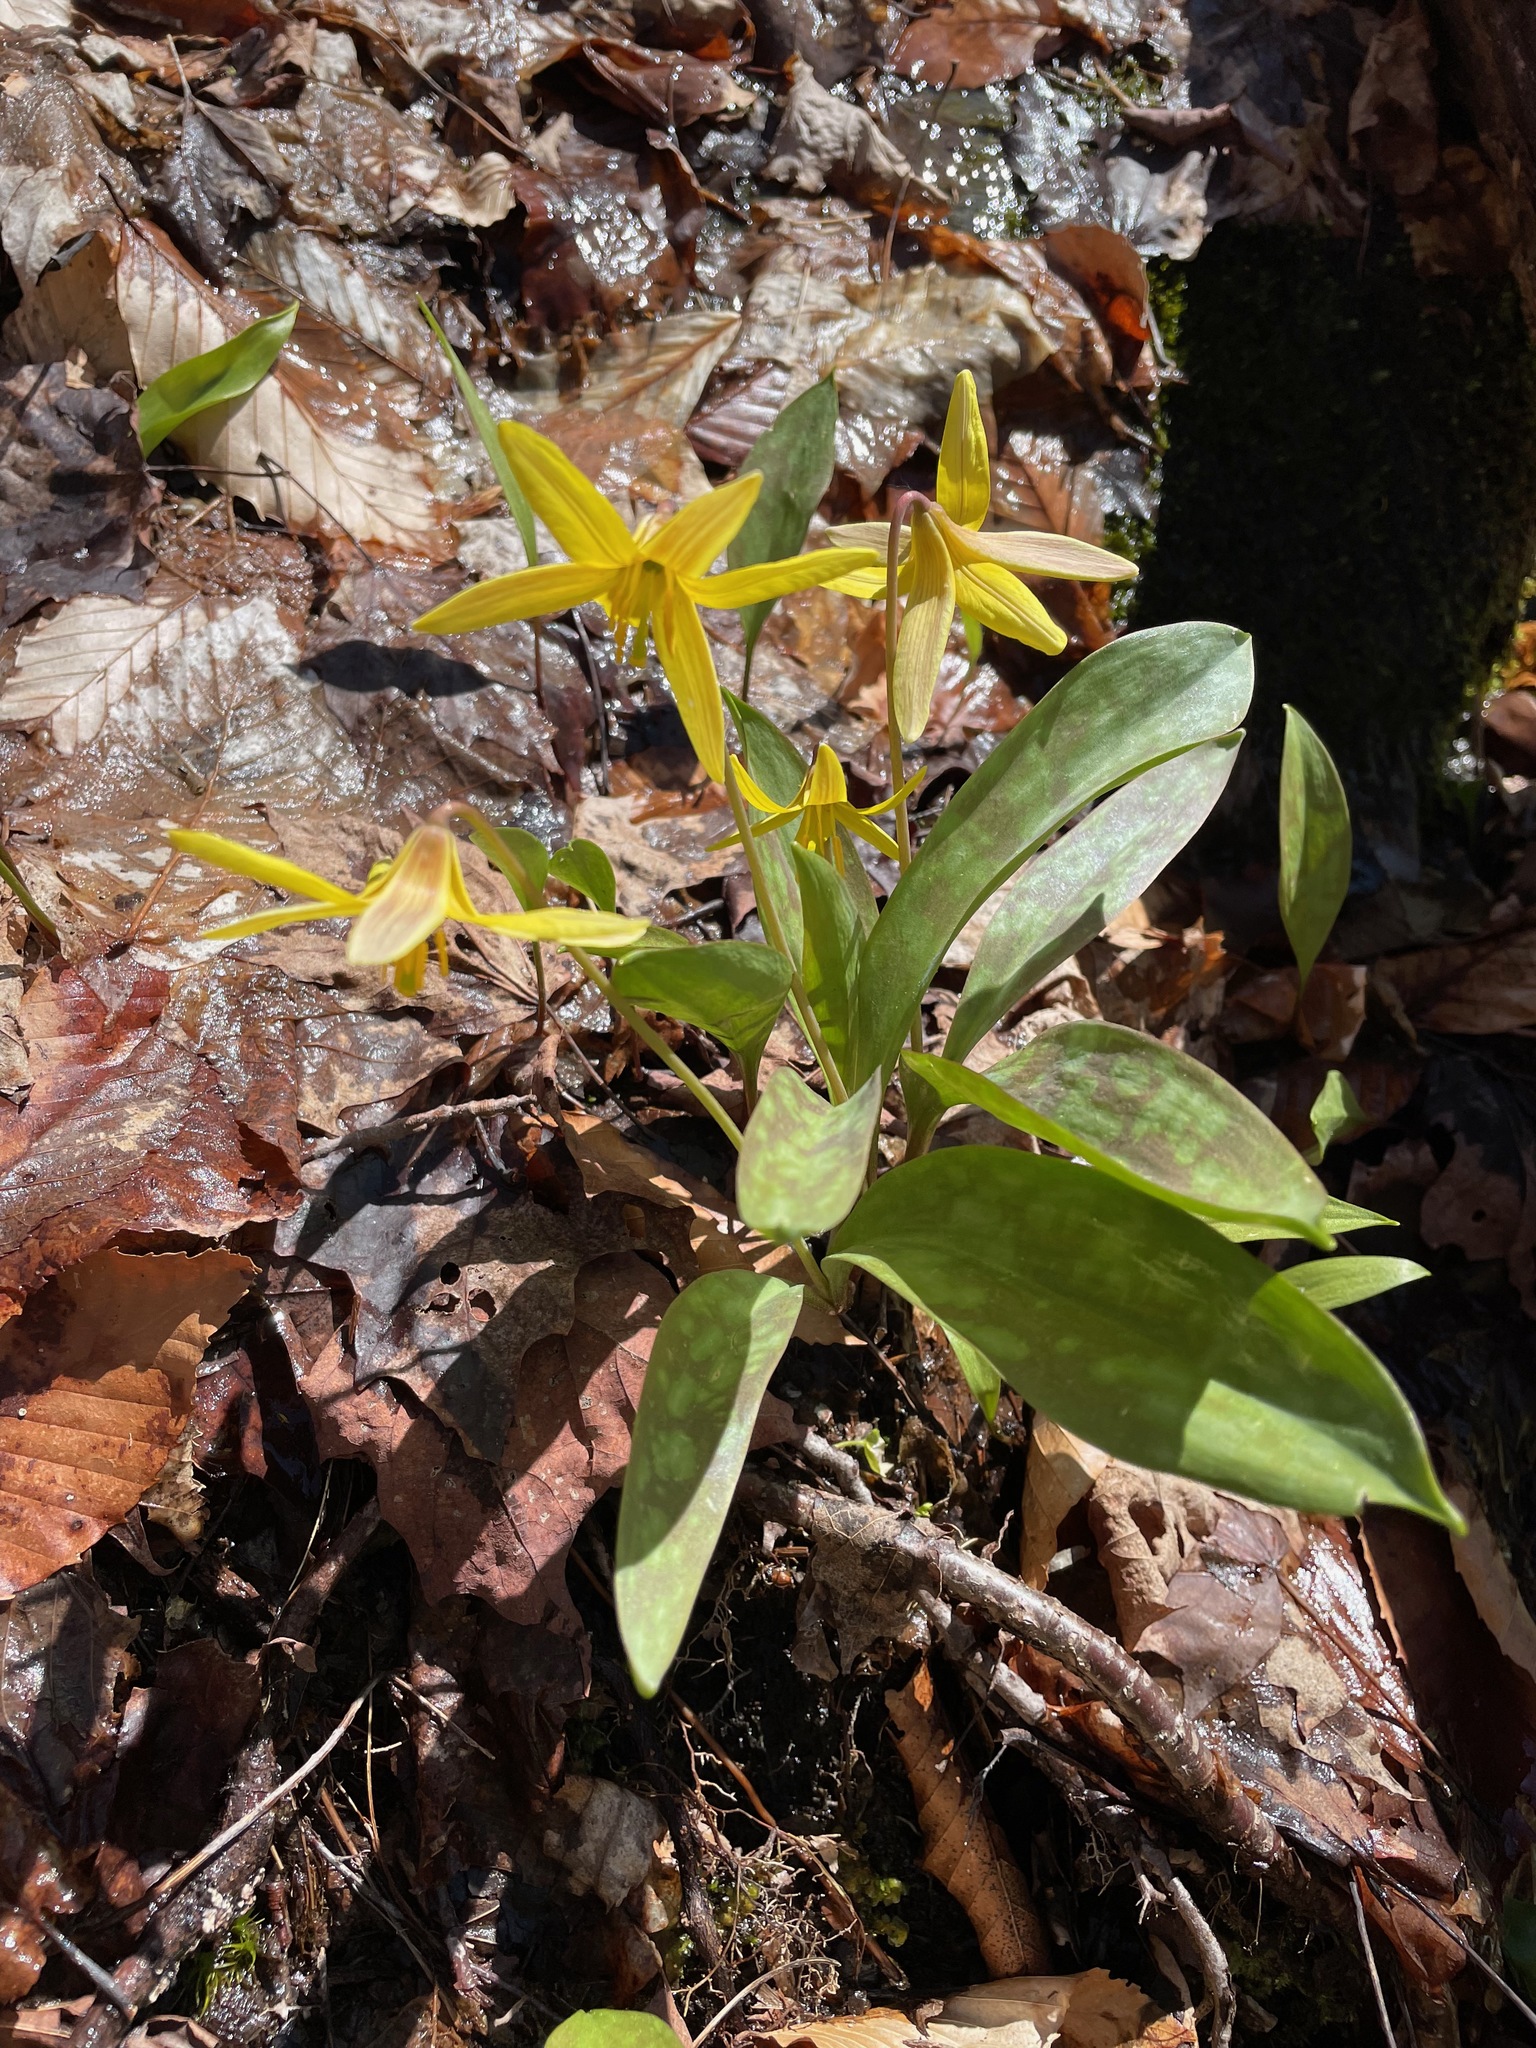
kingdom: Plantae
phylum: Tracheophyta
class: Liliopsida
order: Liliales
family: Liliaceae
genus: Erythronium
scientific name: Erythronium americanum
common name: Yellow adder's-tongue
